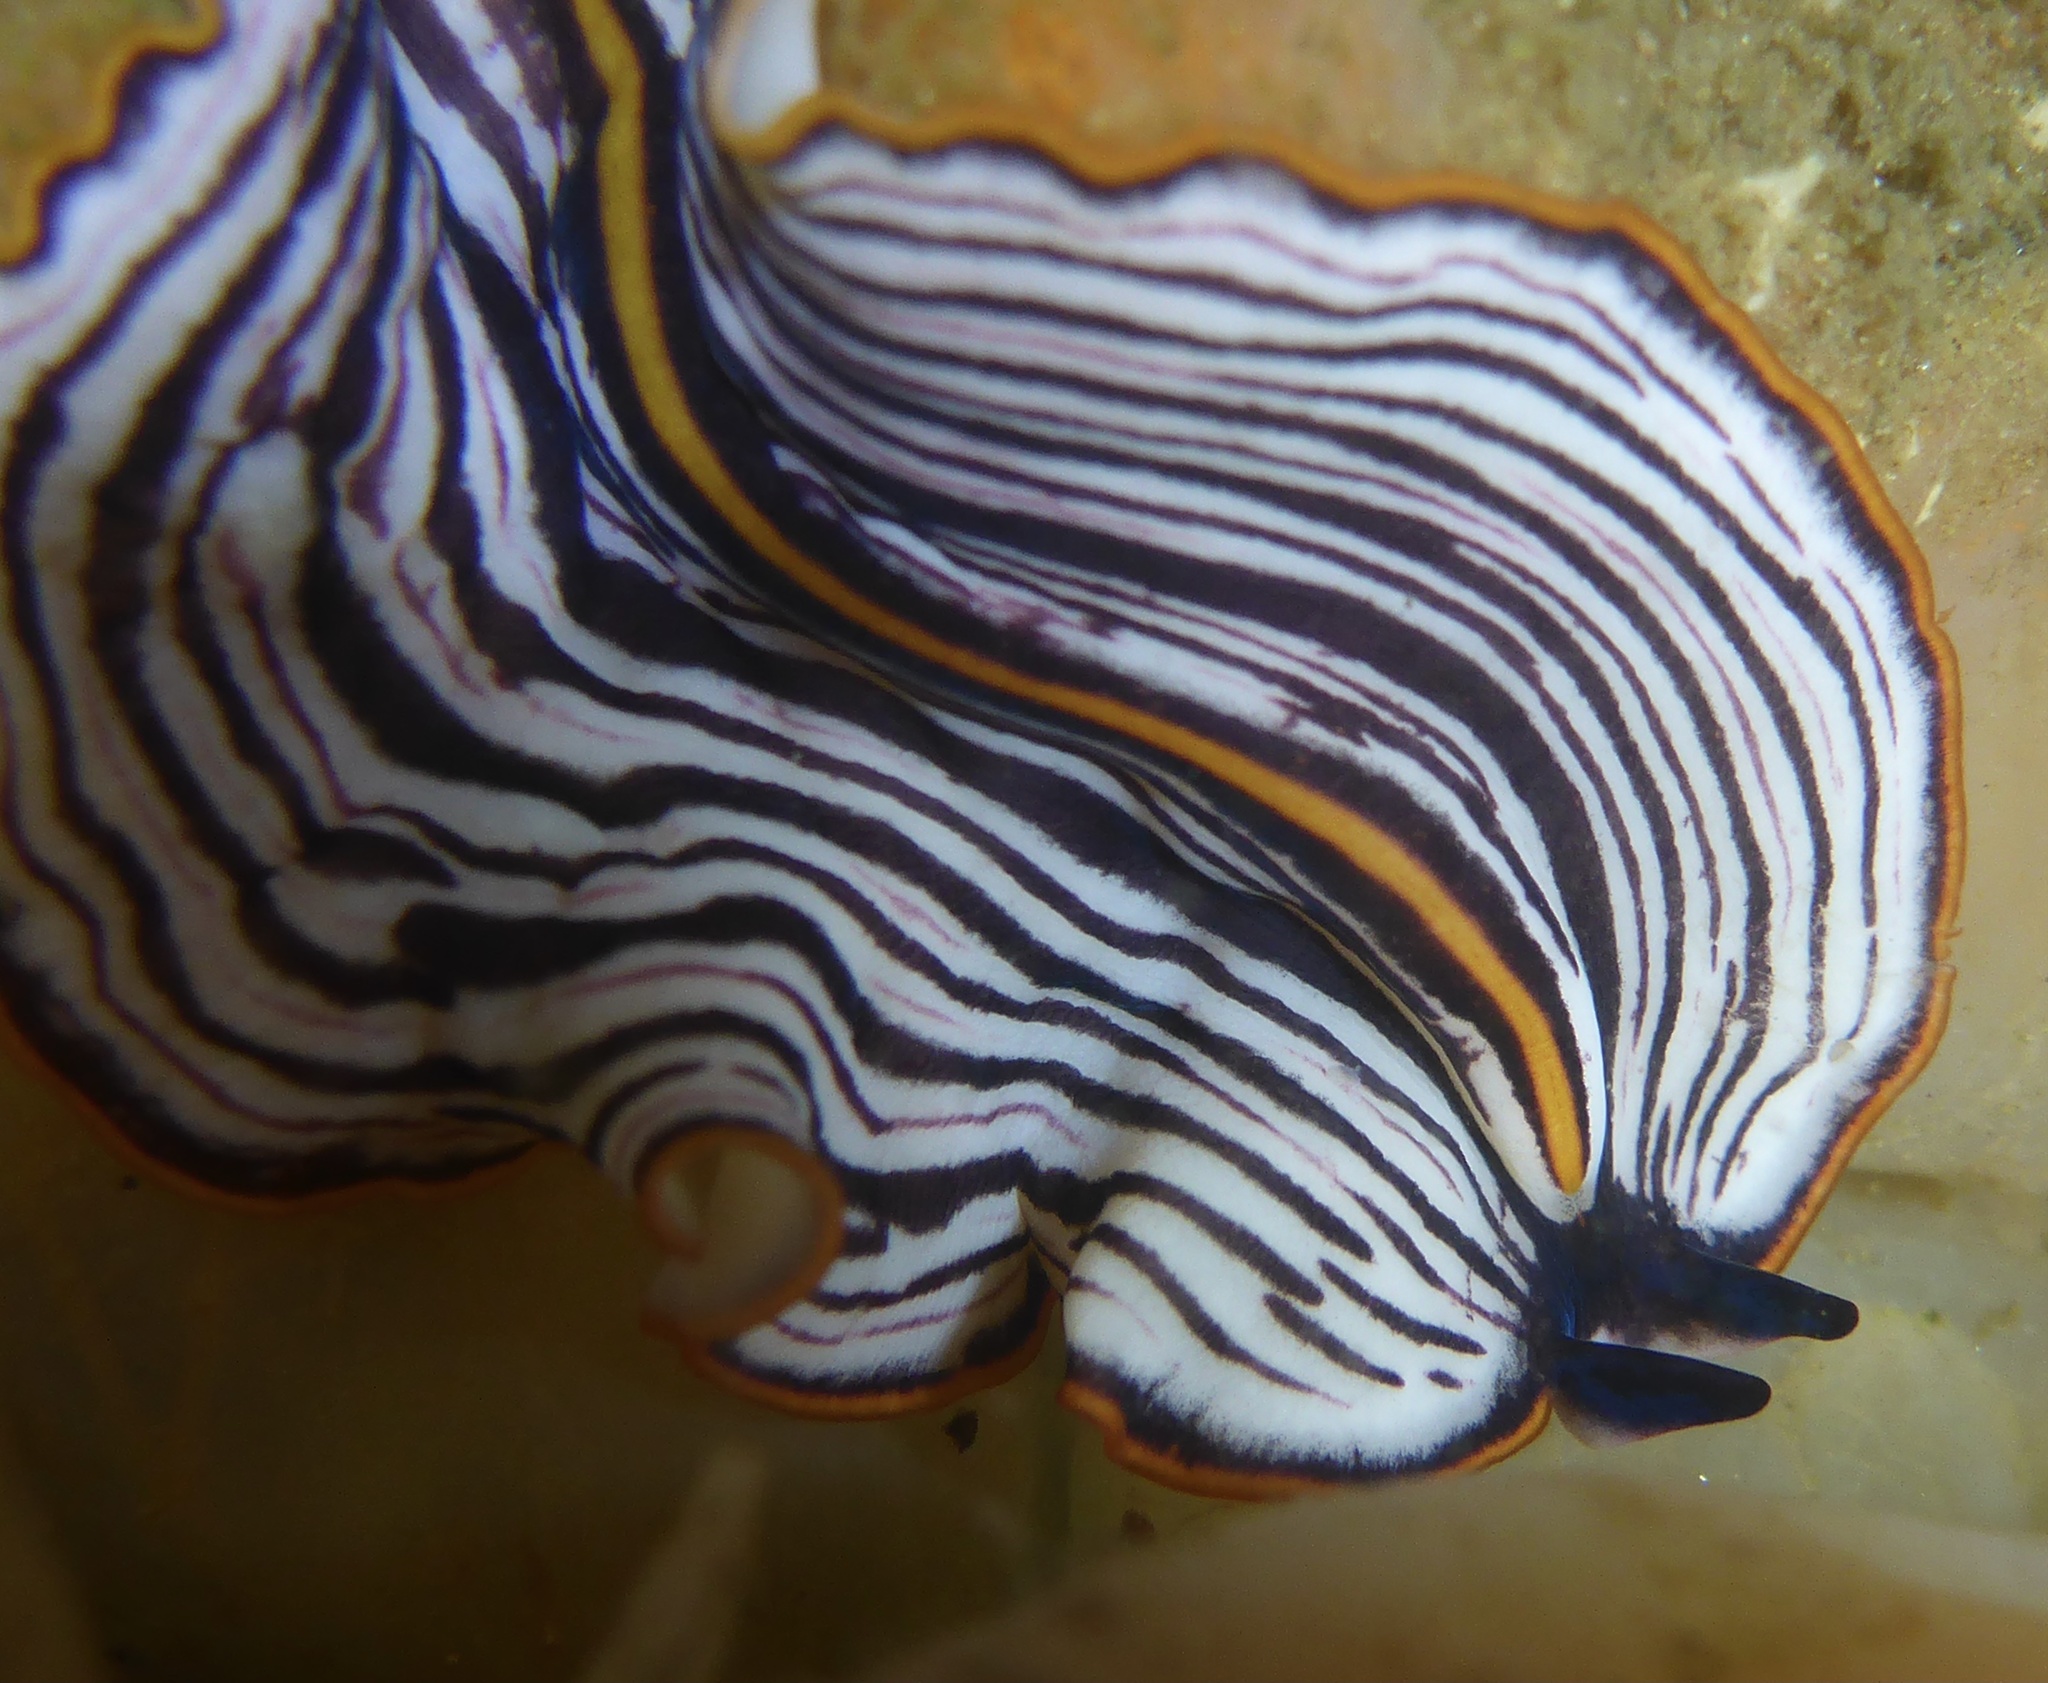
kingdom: Animalia
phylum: Platyhelminthes
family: Euryleptidae
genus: Praestheceraeus
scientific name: Praestheceraeus bellostriatus
